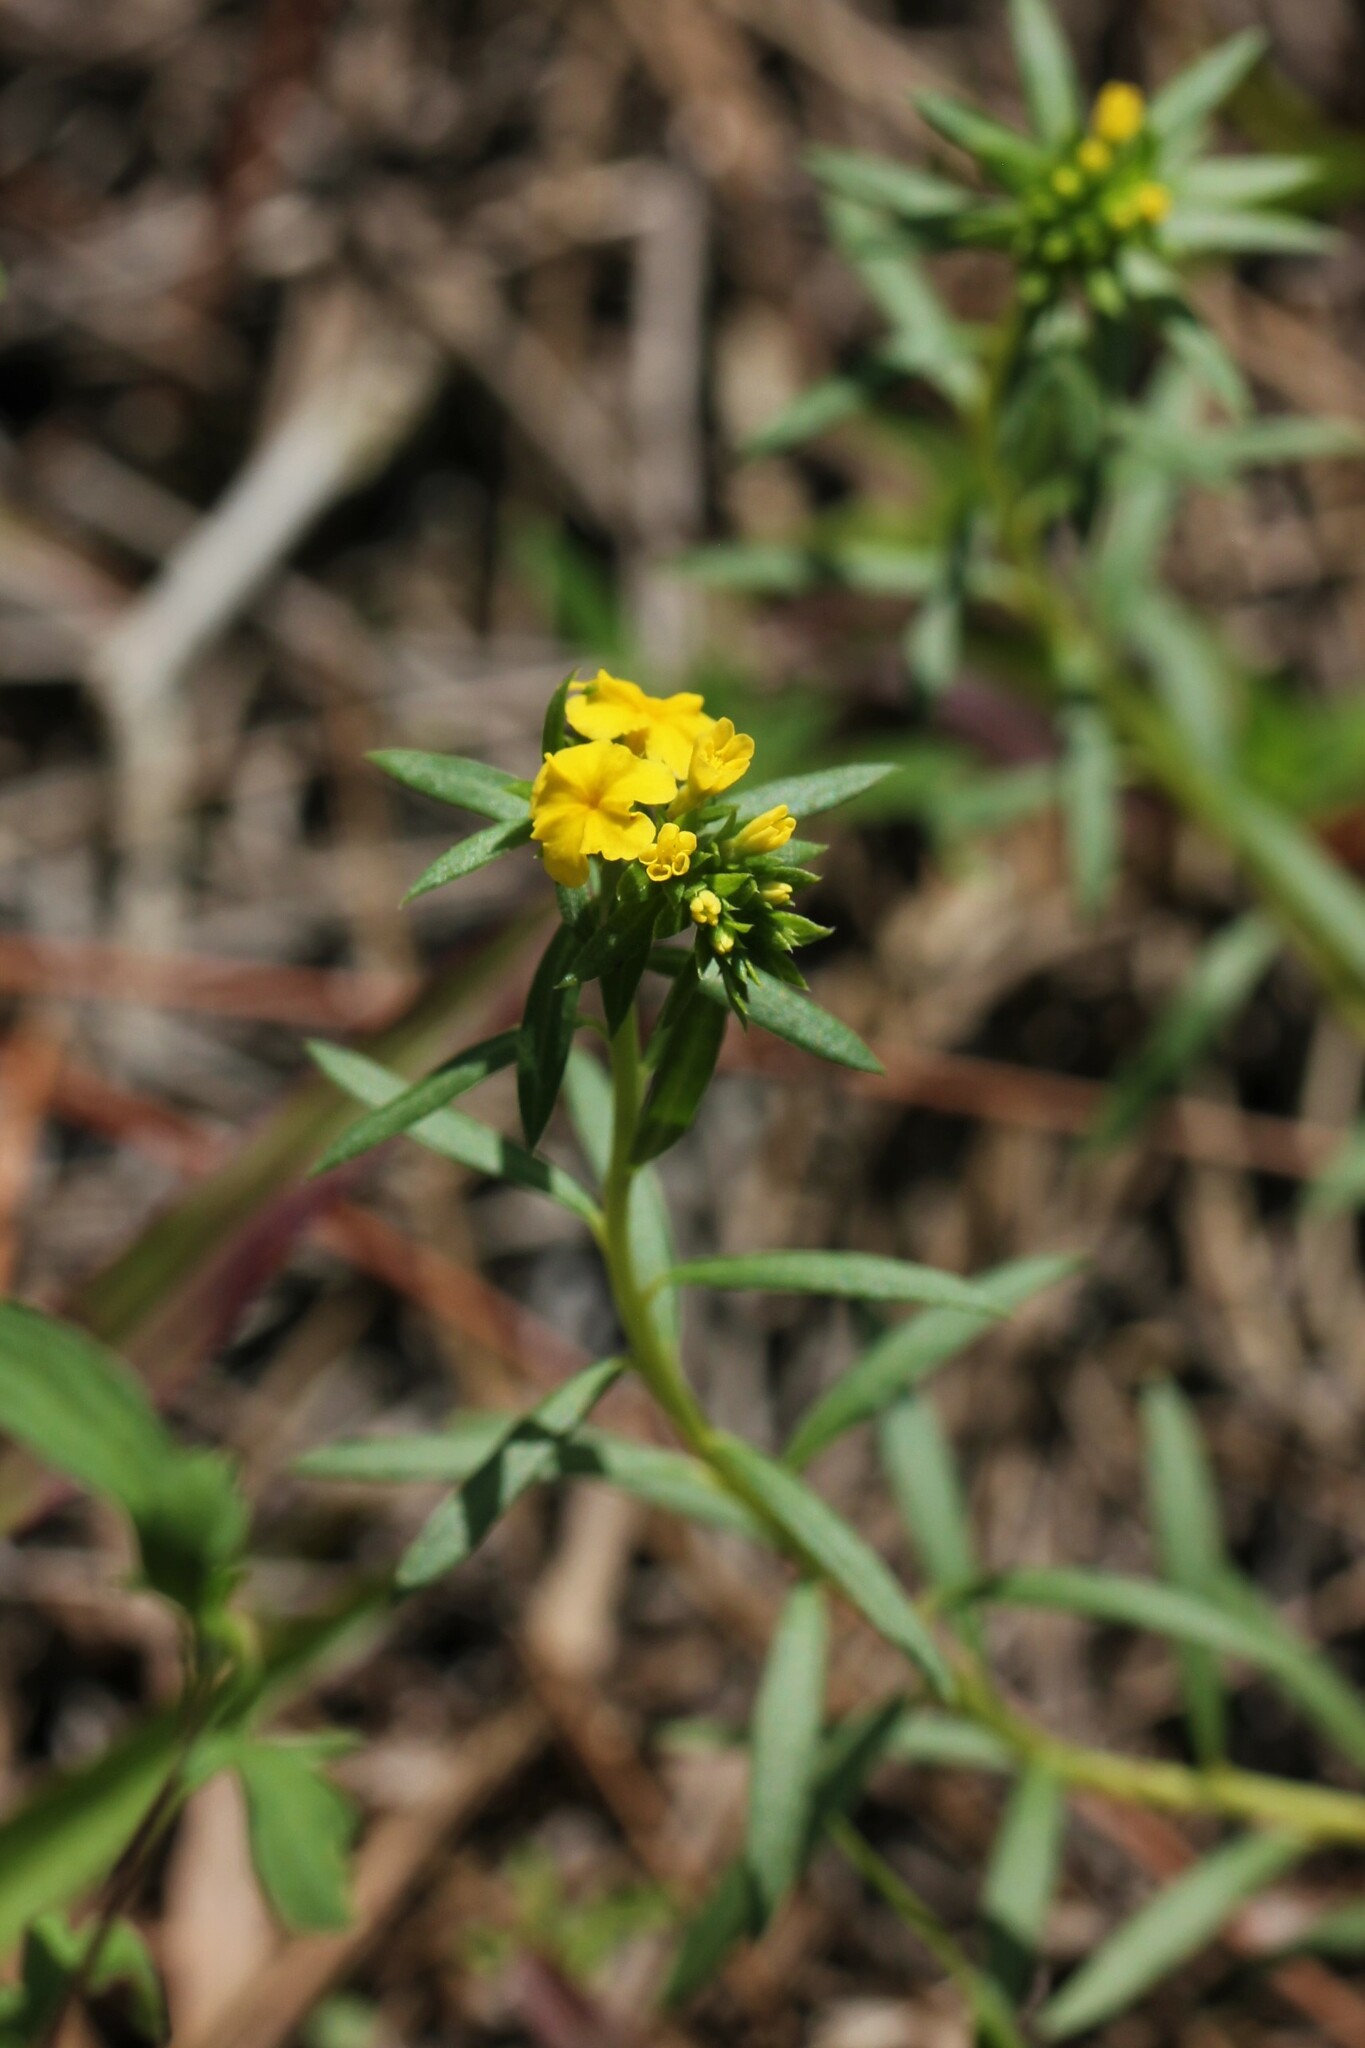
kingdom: Plantae
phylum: Tracheophyta
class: Magnoliopsida
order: Boraginales
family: Heliotropiaceae
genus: Euploca
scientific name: Euploca polyphylla
